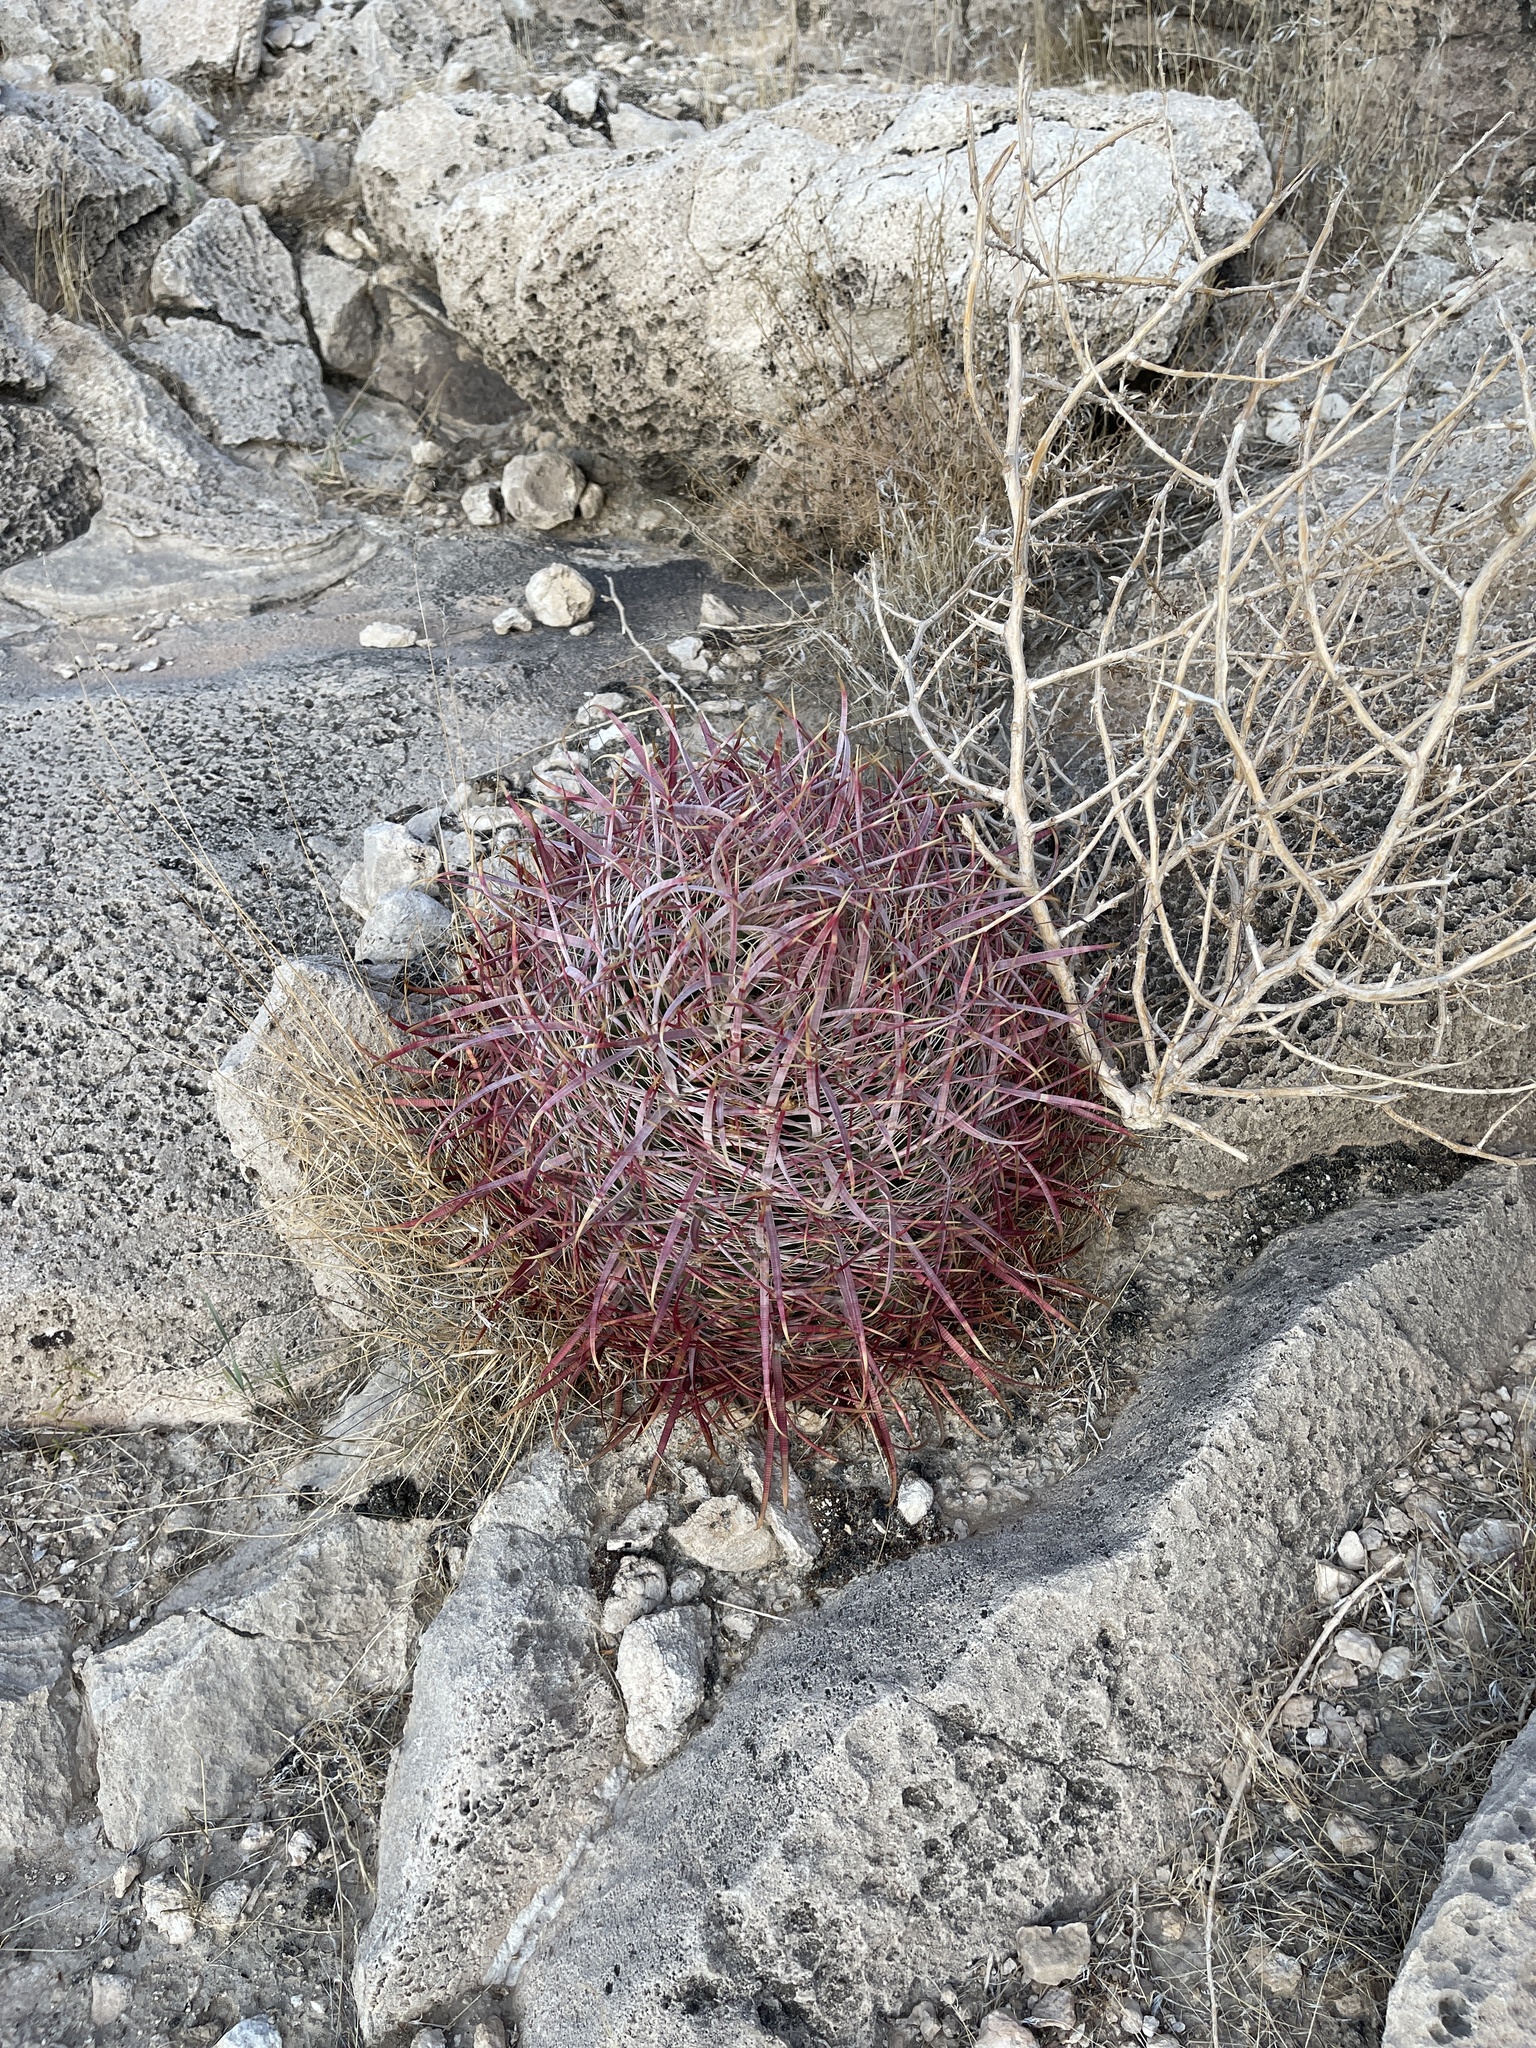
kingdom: Plantae
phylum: Tracheophyta
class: Magnoliopsida
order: Caryophyllales
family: Cactaceae
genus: Ferocactus
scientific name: Ferocactus cylindraceus
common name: California barrel cactus
